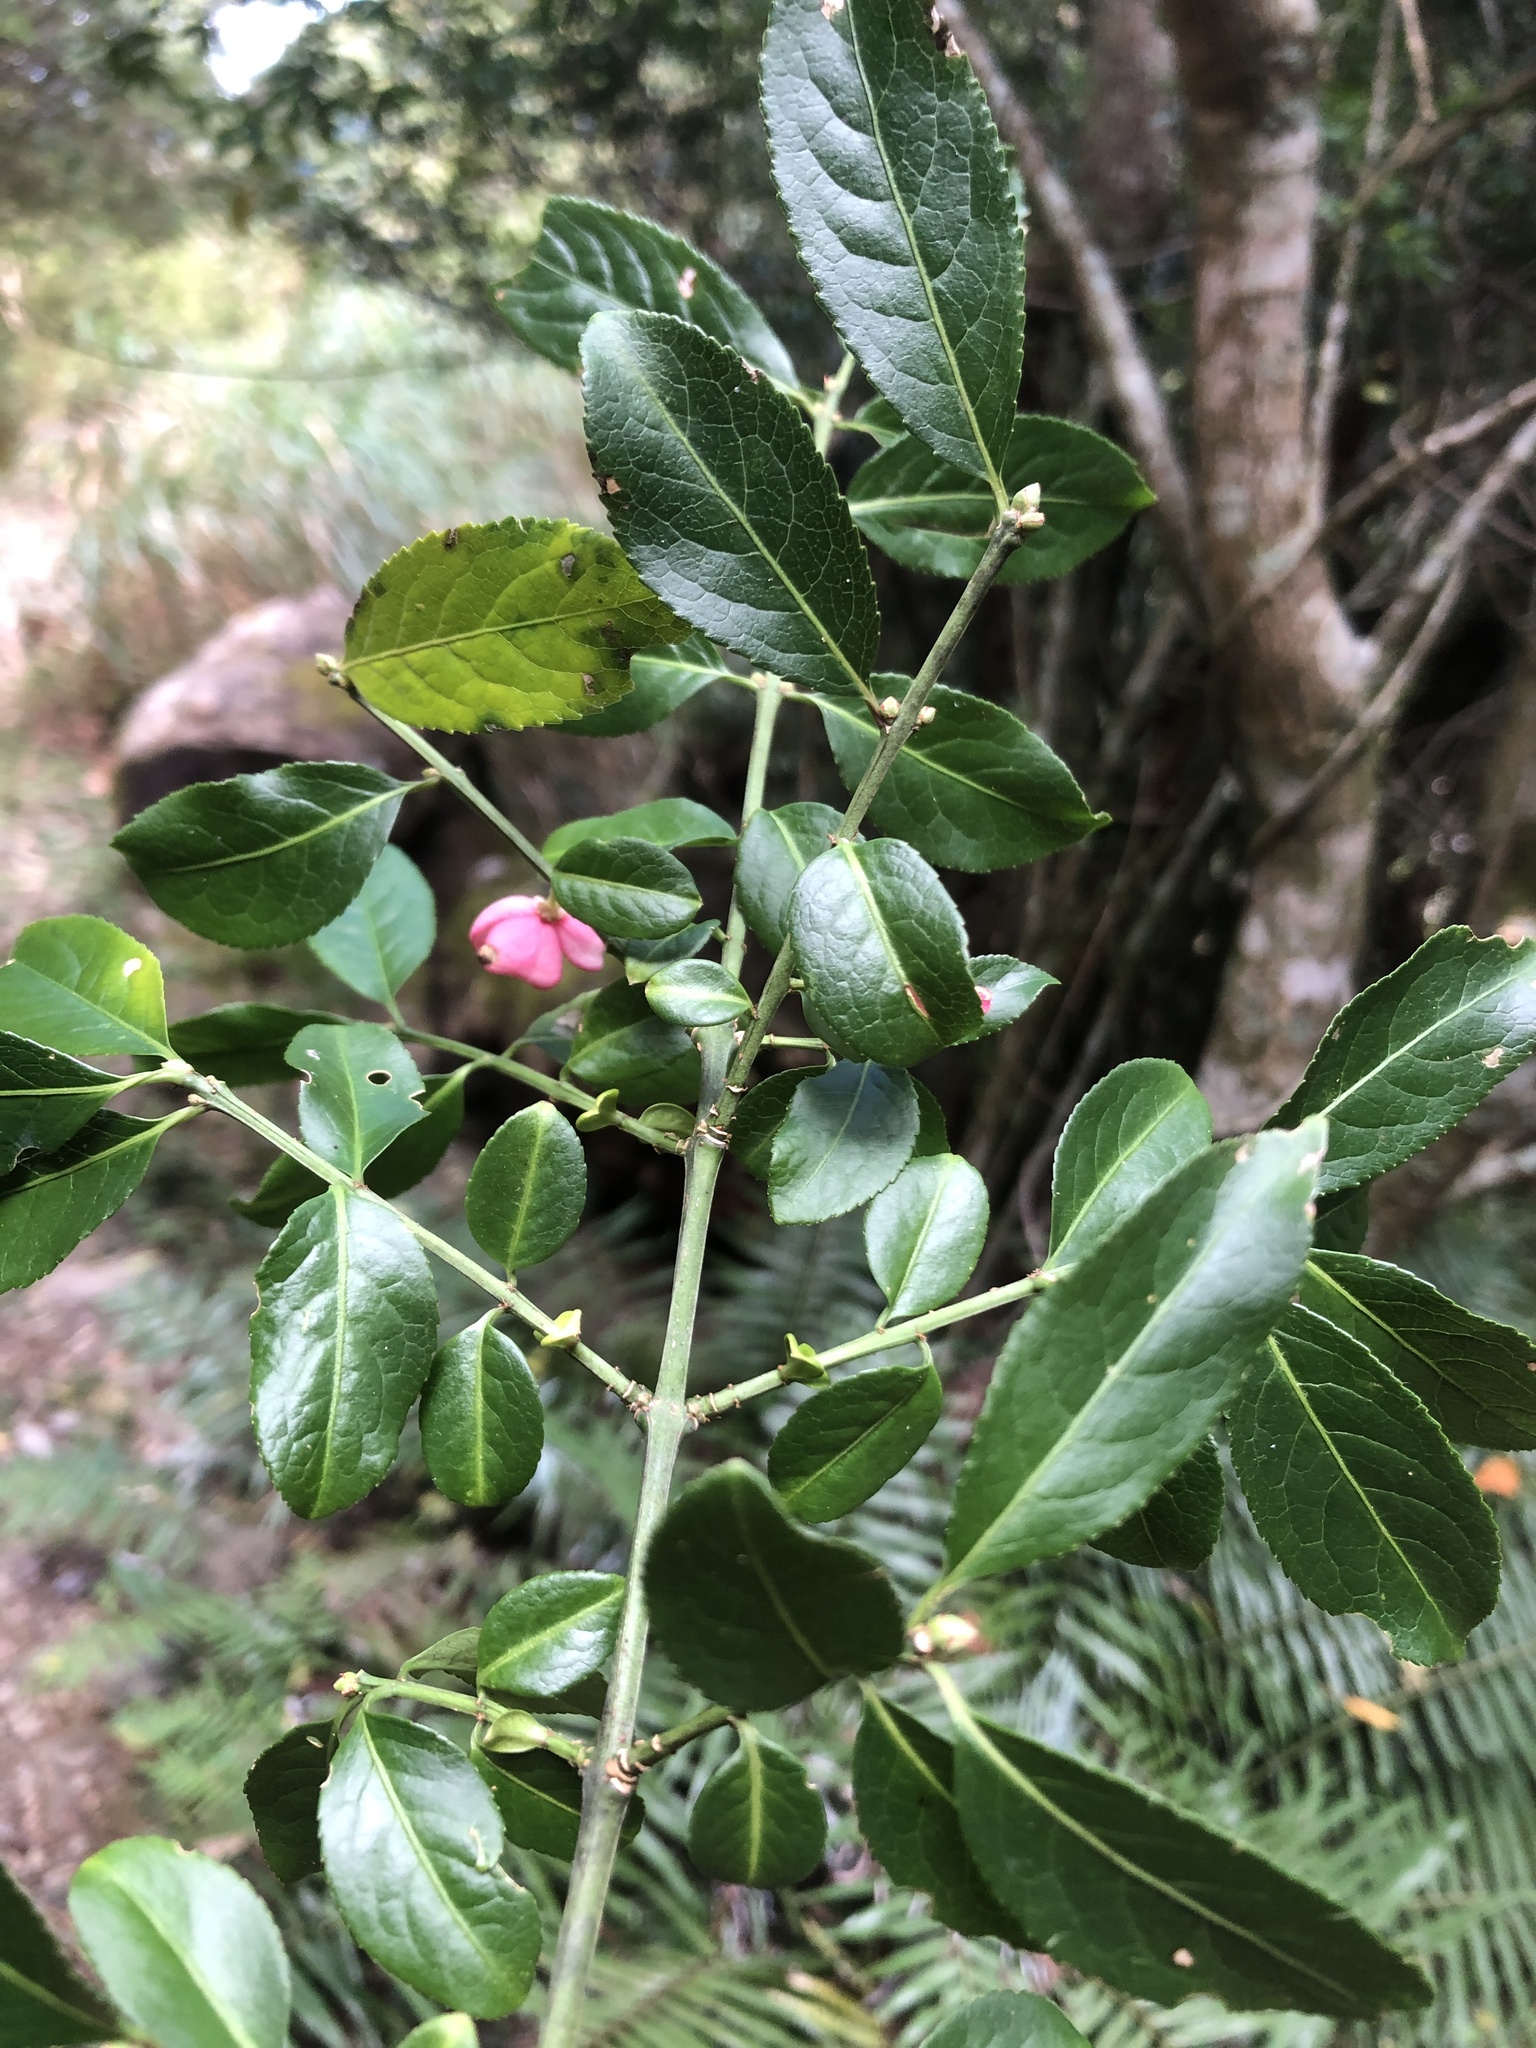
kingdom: Plantae
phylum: Tracheophyta
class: Magnoliopsida
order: Celastrales
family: Celastraceae
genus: Euonymus
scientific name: Euonymus carnosus
